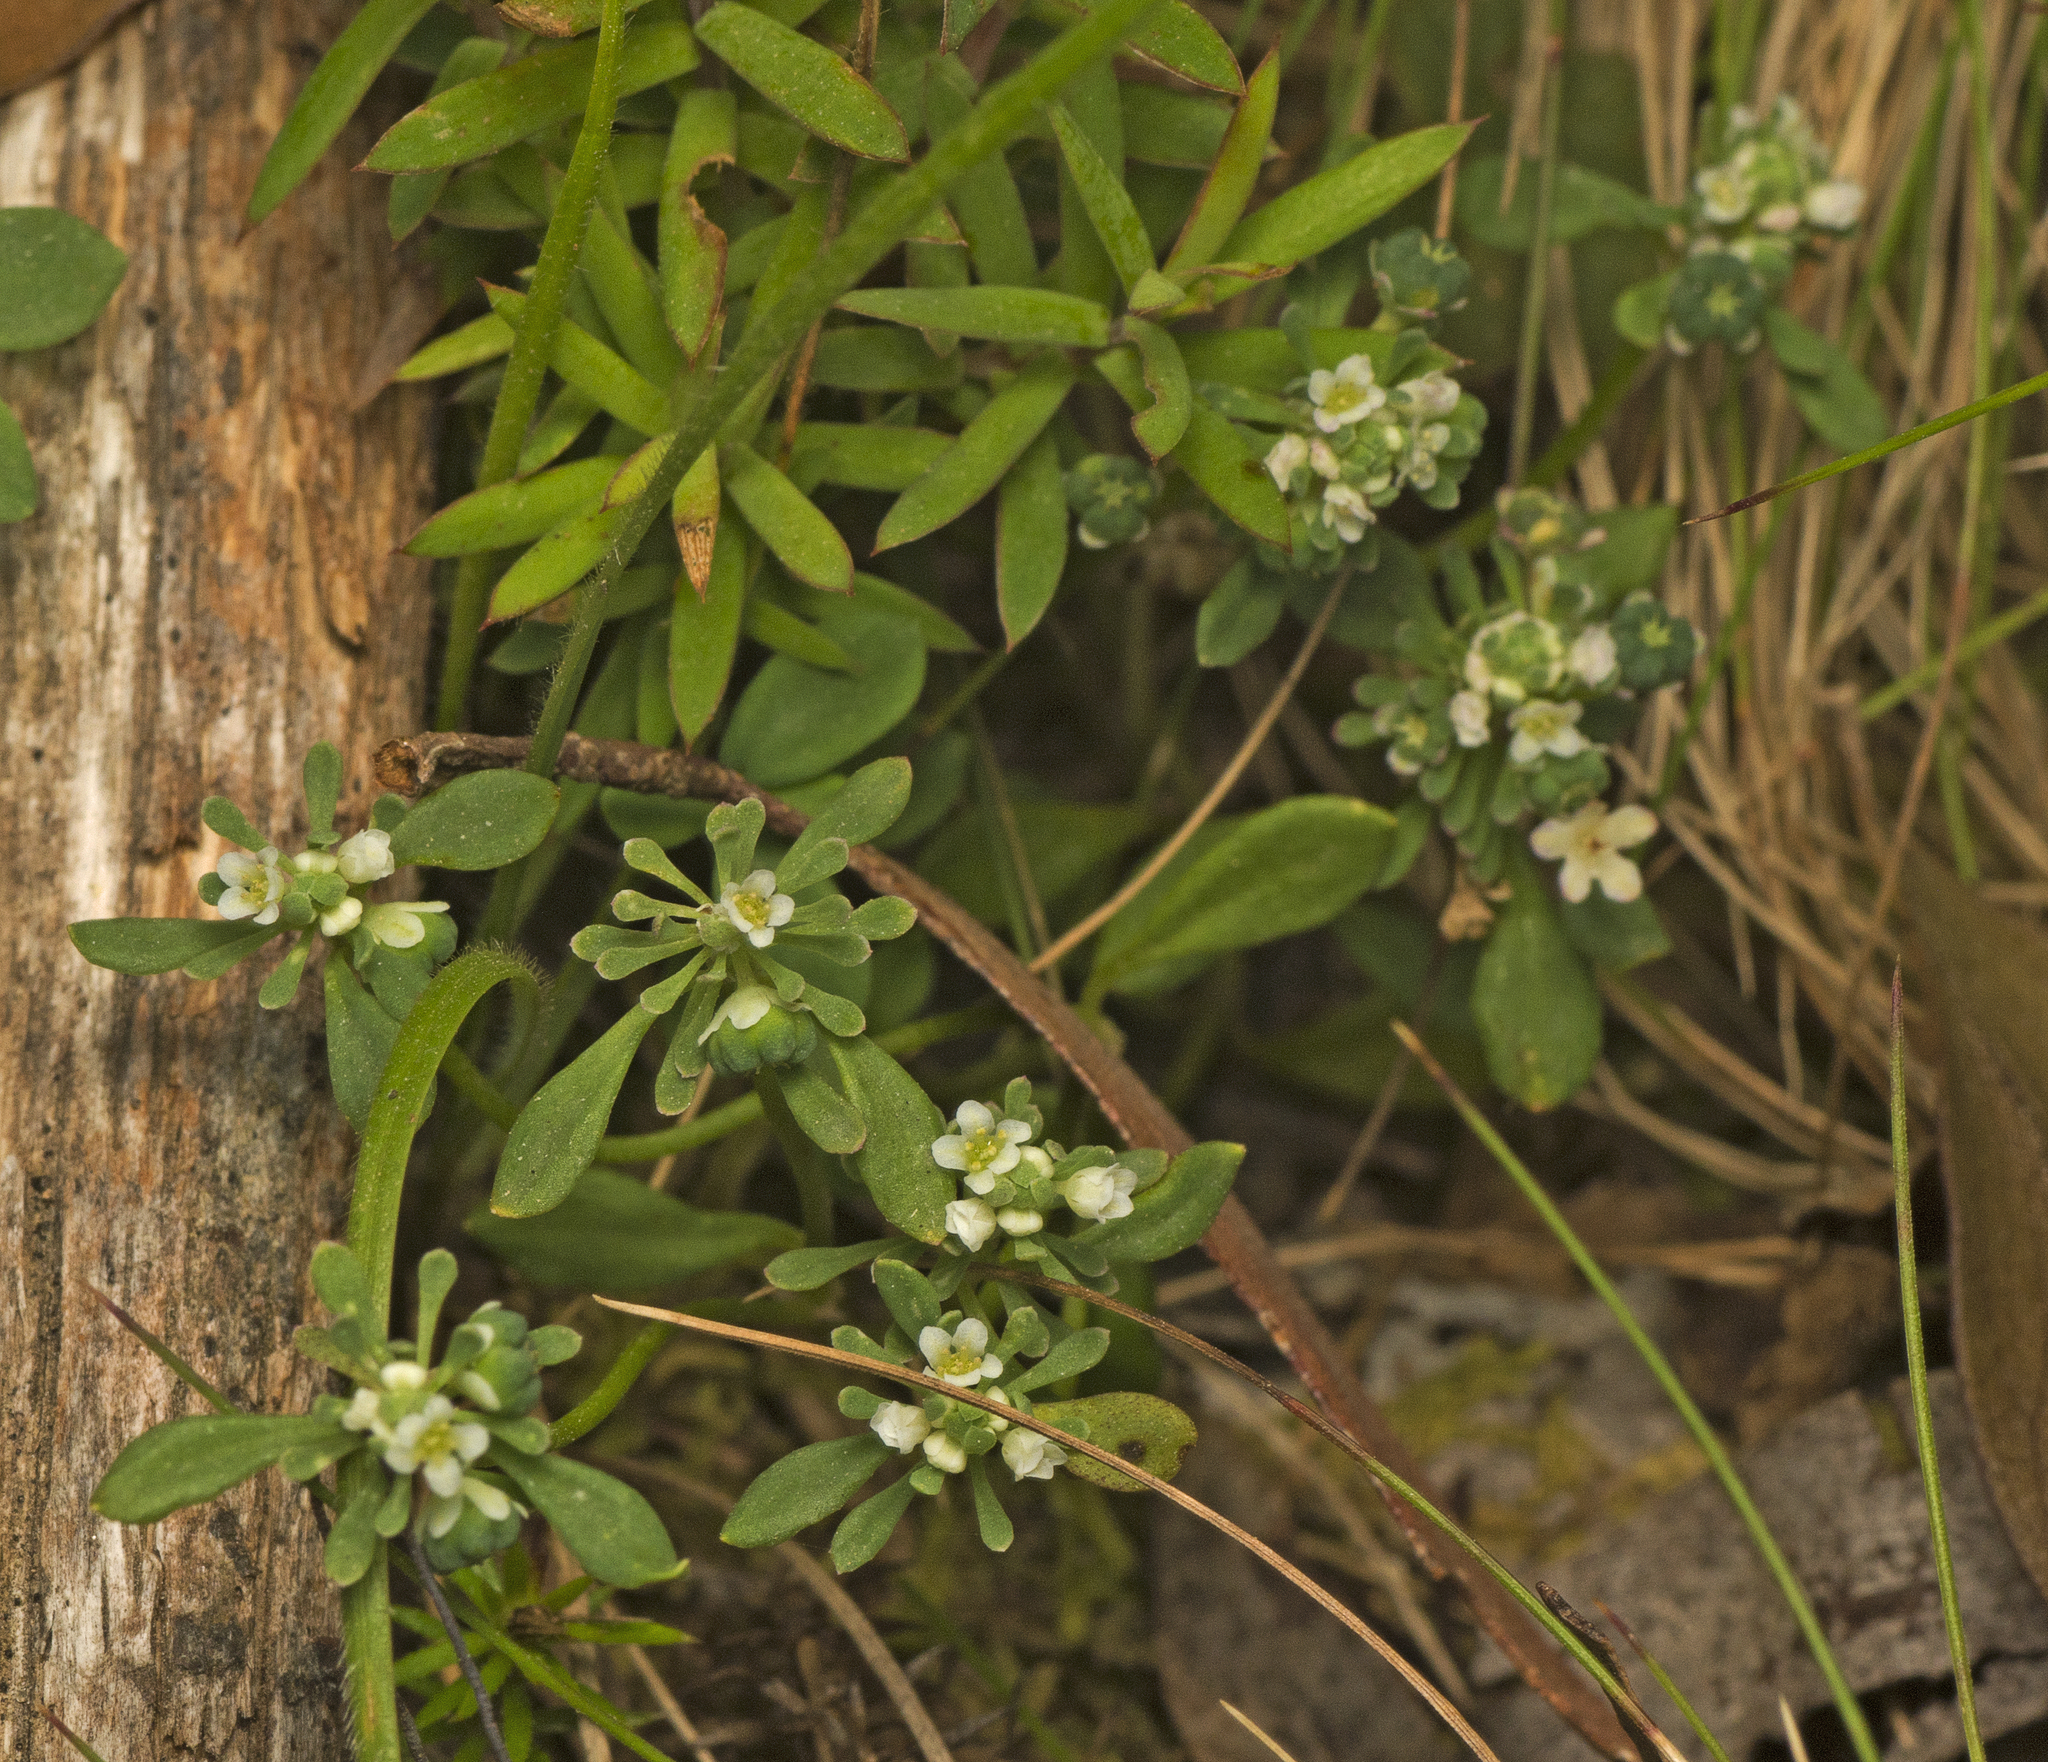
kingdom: Plantae
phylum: Tracheophyta
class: Magnoliopsida
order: Malpighiales
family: Phyllanthaceae
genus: Poranthera
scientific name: Poranthera microphylla
